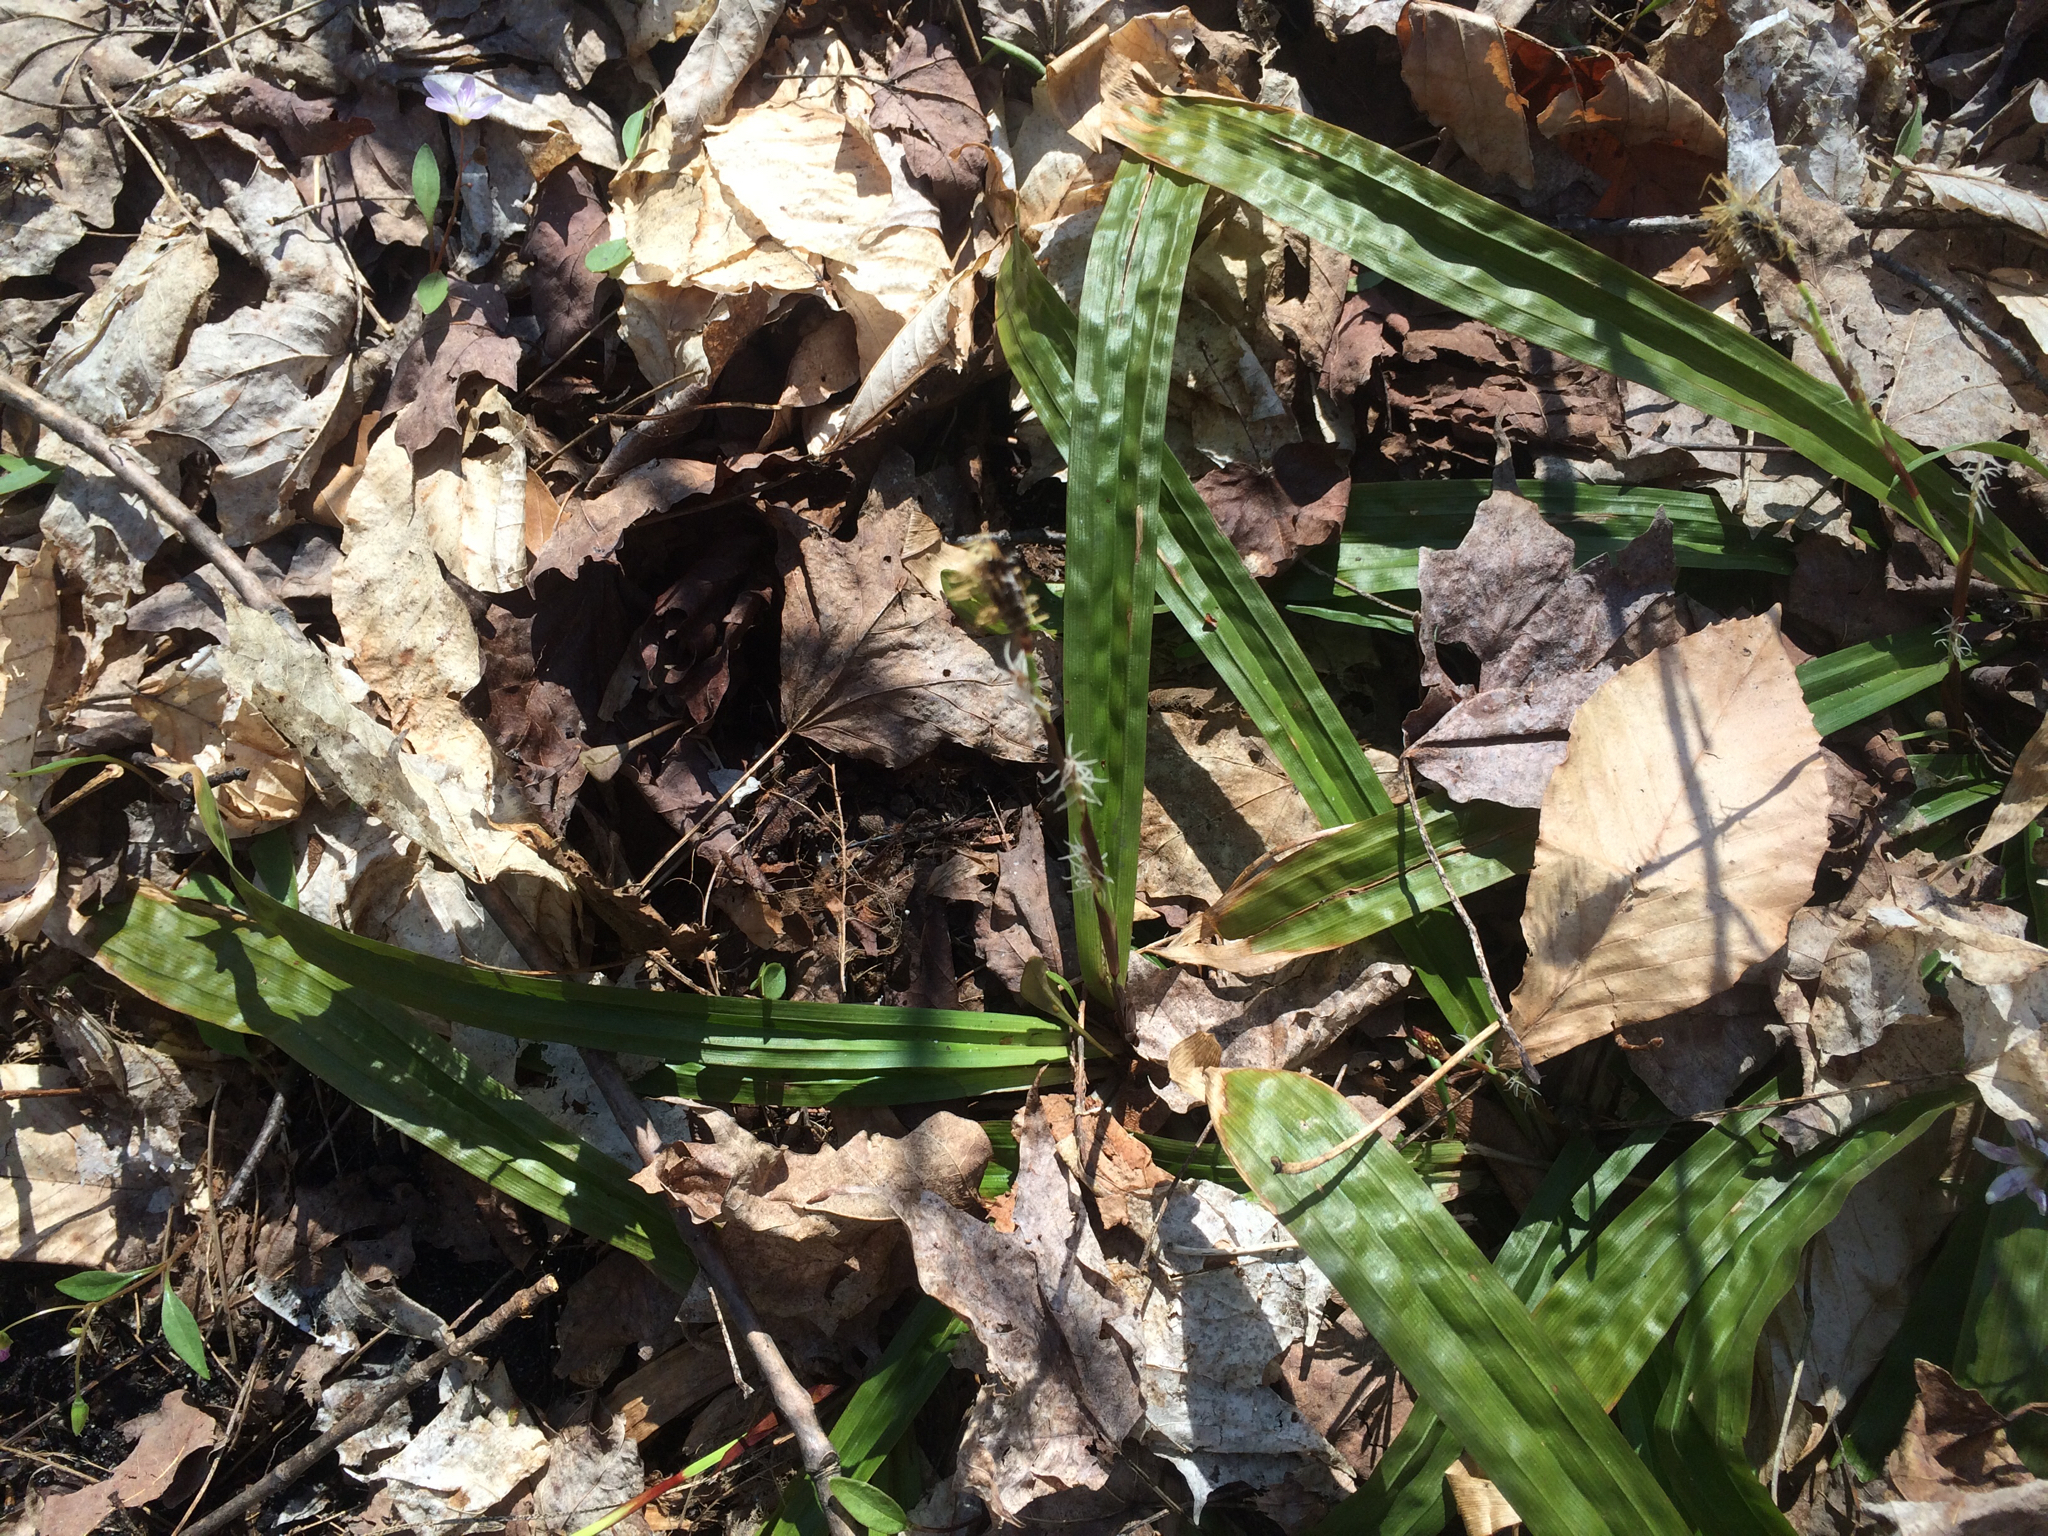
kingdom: Plantae
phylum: Tracheophyta
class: Liliopsida
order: Poales
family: Cyperaceae
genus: Carex
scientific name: Carex plantaginea
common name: Plantain-leaved sedge
